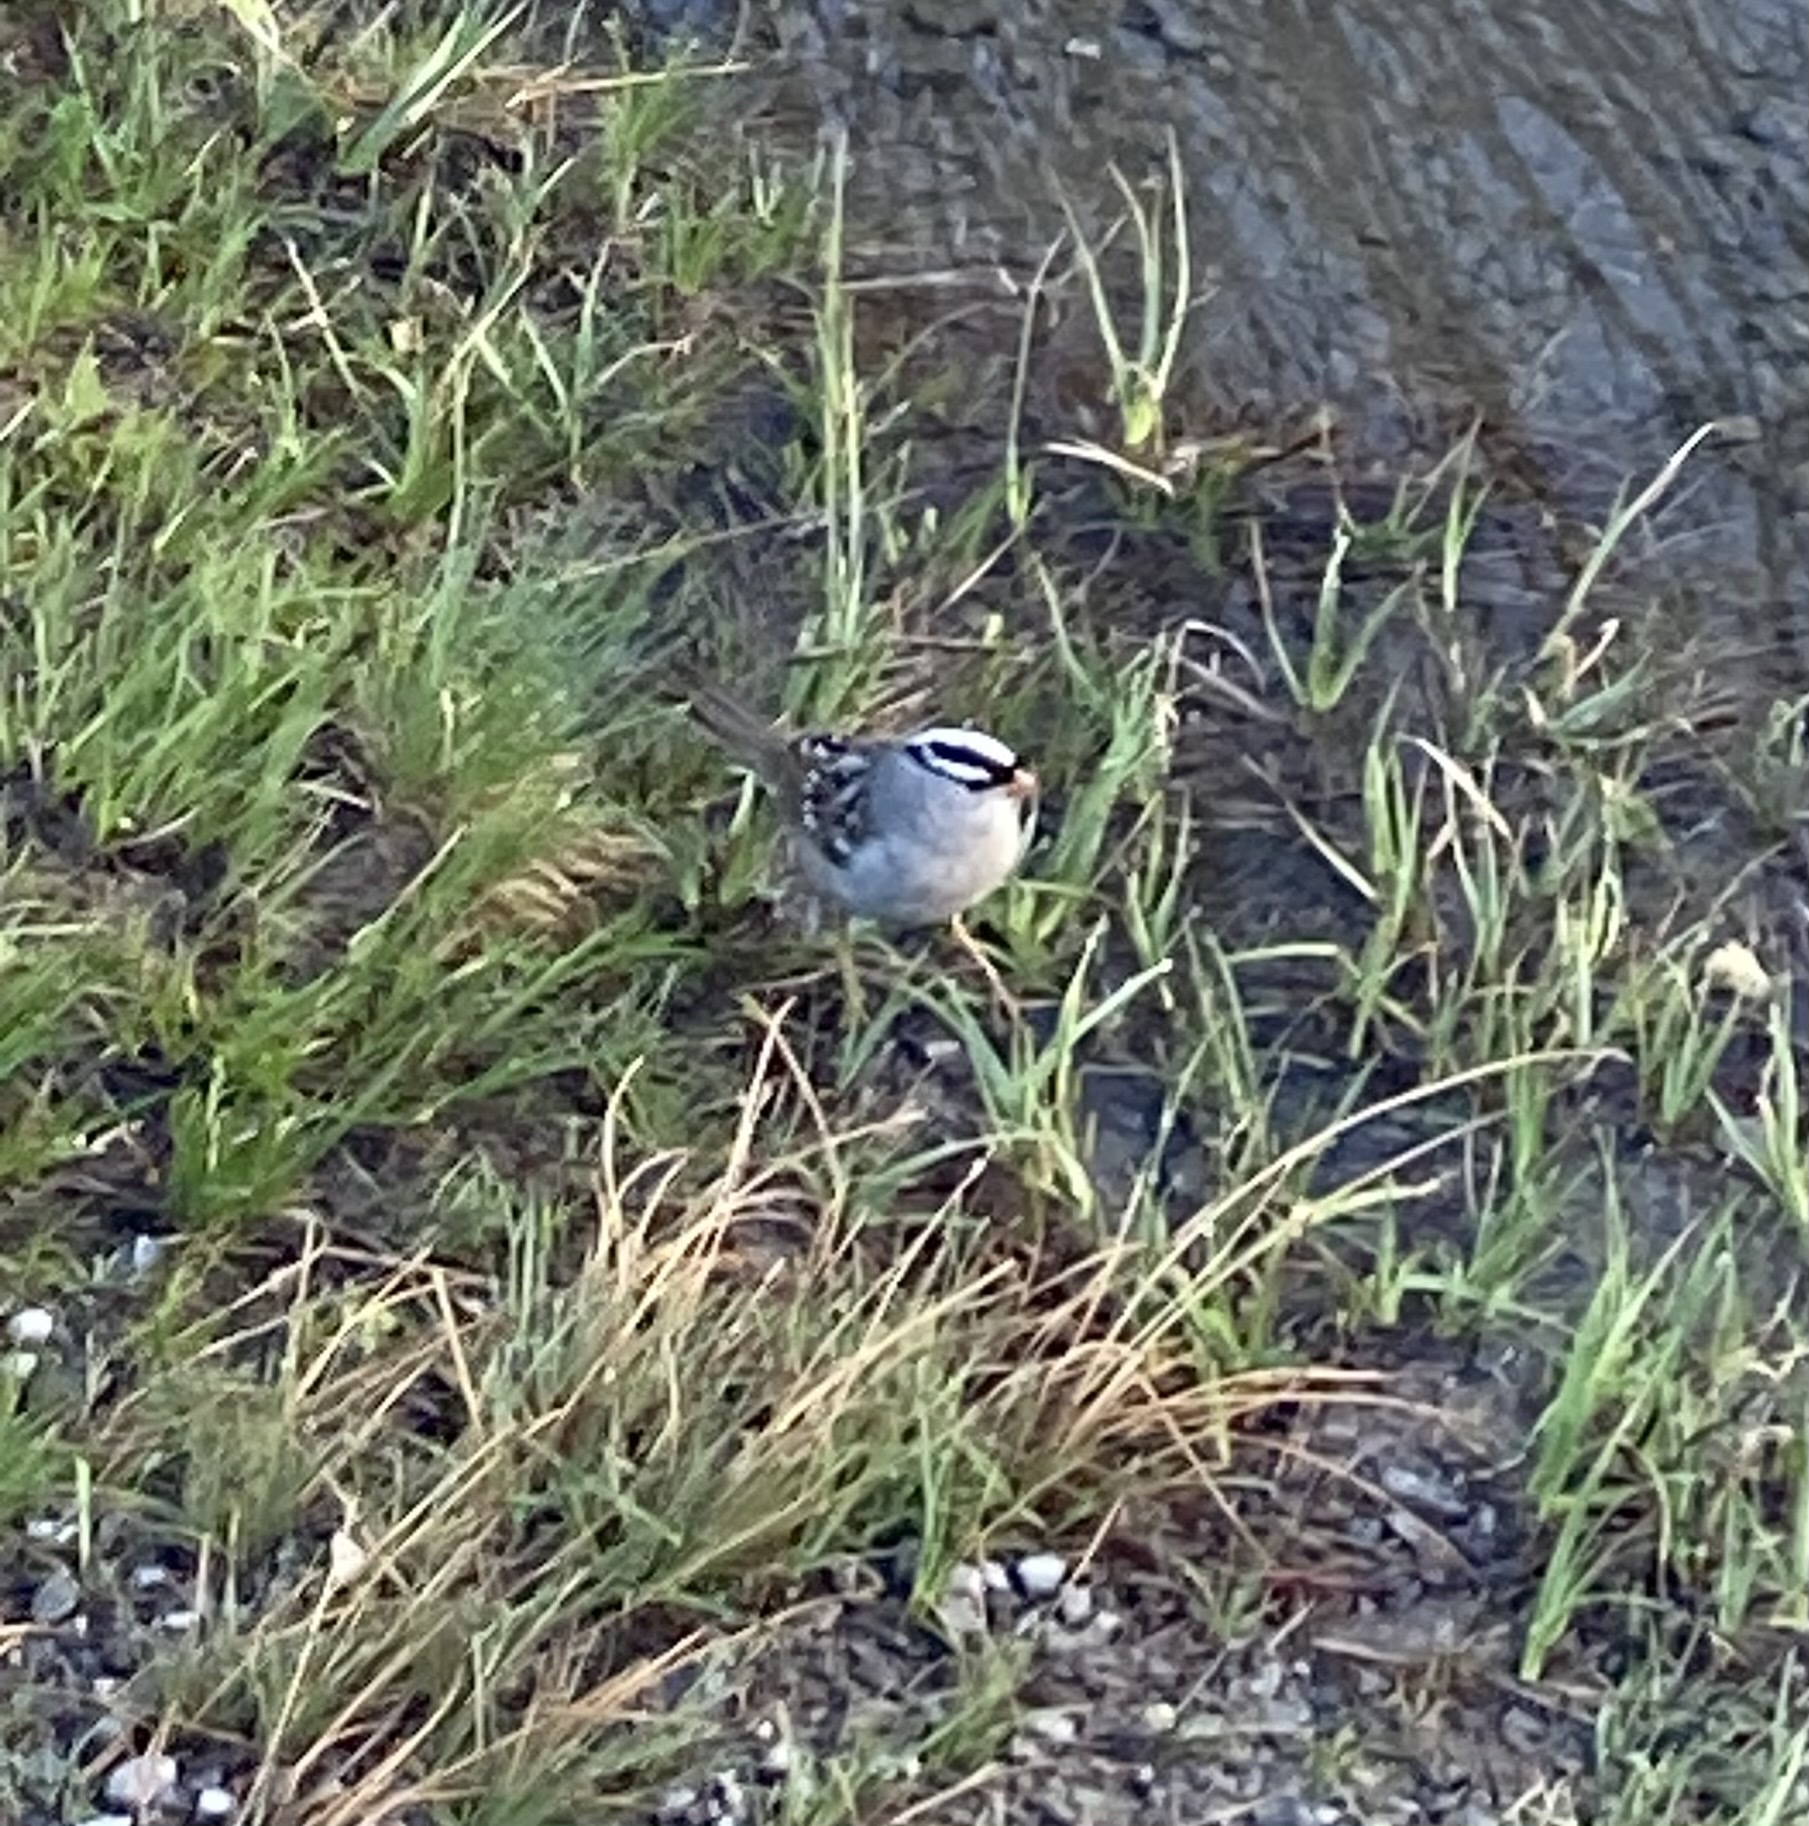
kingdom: Animalia
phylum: Chordata
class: Aves
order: Passeriformes
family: Passerellidae
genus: Zonotrichia
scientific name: Zonotrichia leucophrys
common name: White-crowned sparrow
